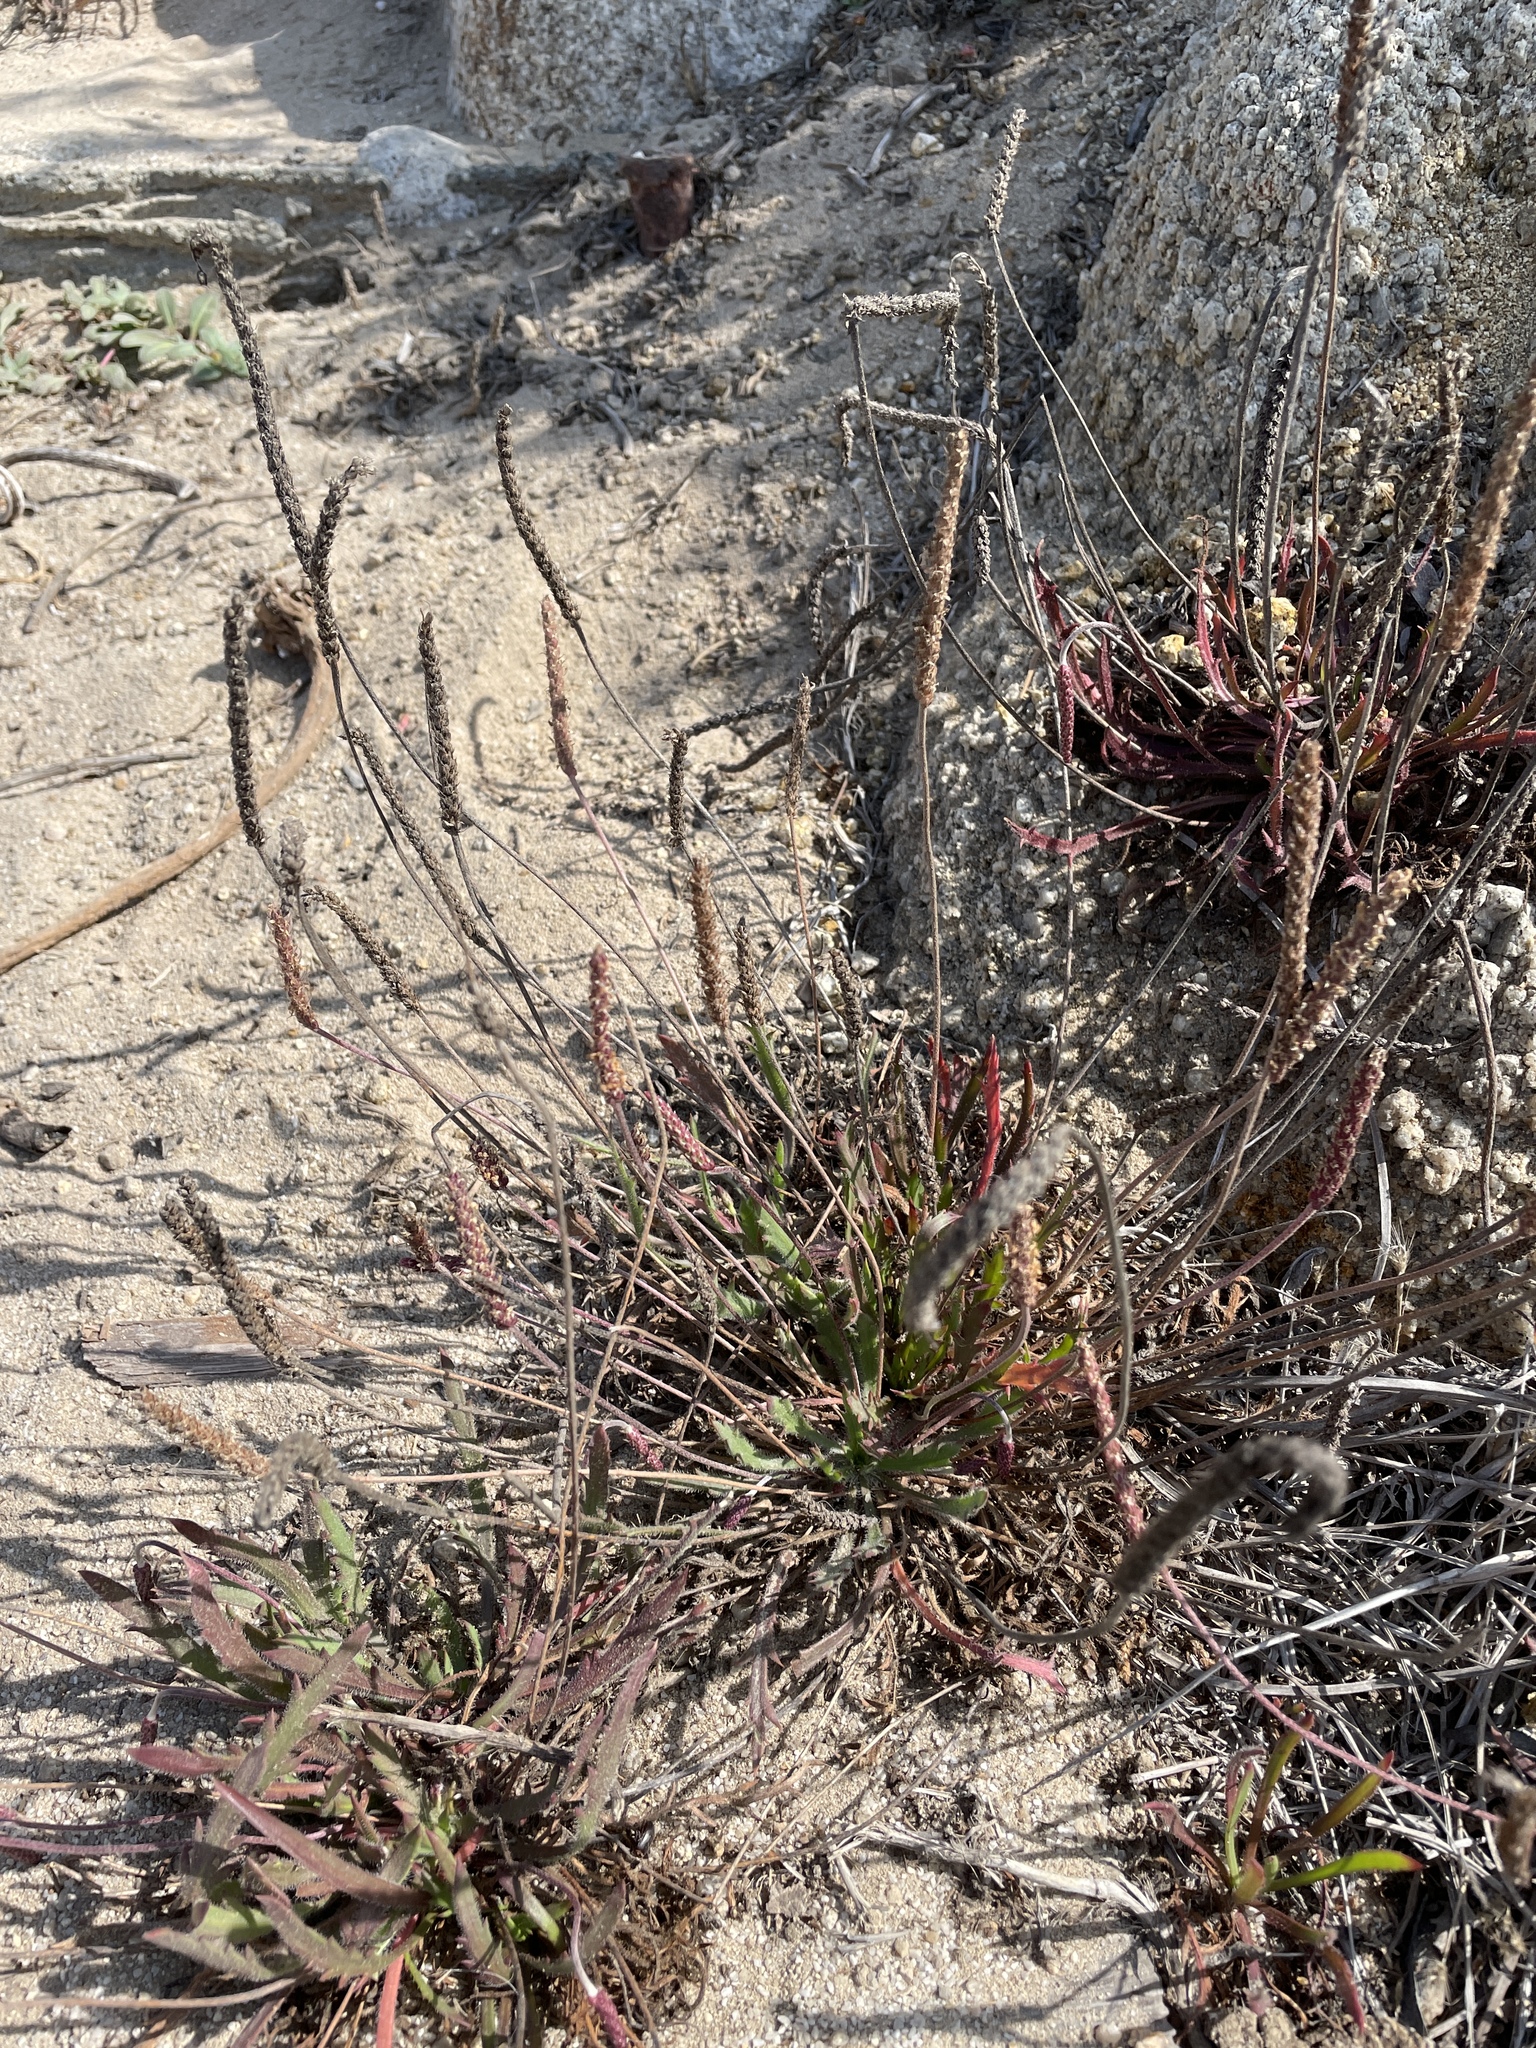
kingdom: Plantae
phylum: Tracheophyta
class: Magnoliopsida
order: Lamiales
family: Plantaginaceae
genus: Plantago
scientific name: Plantago coronopus
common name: Buck's-horn plantain
